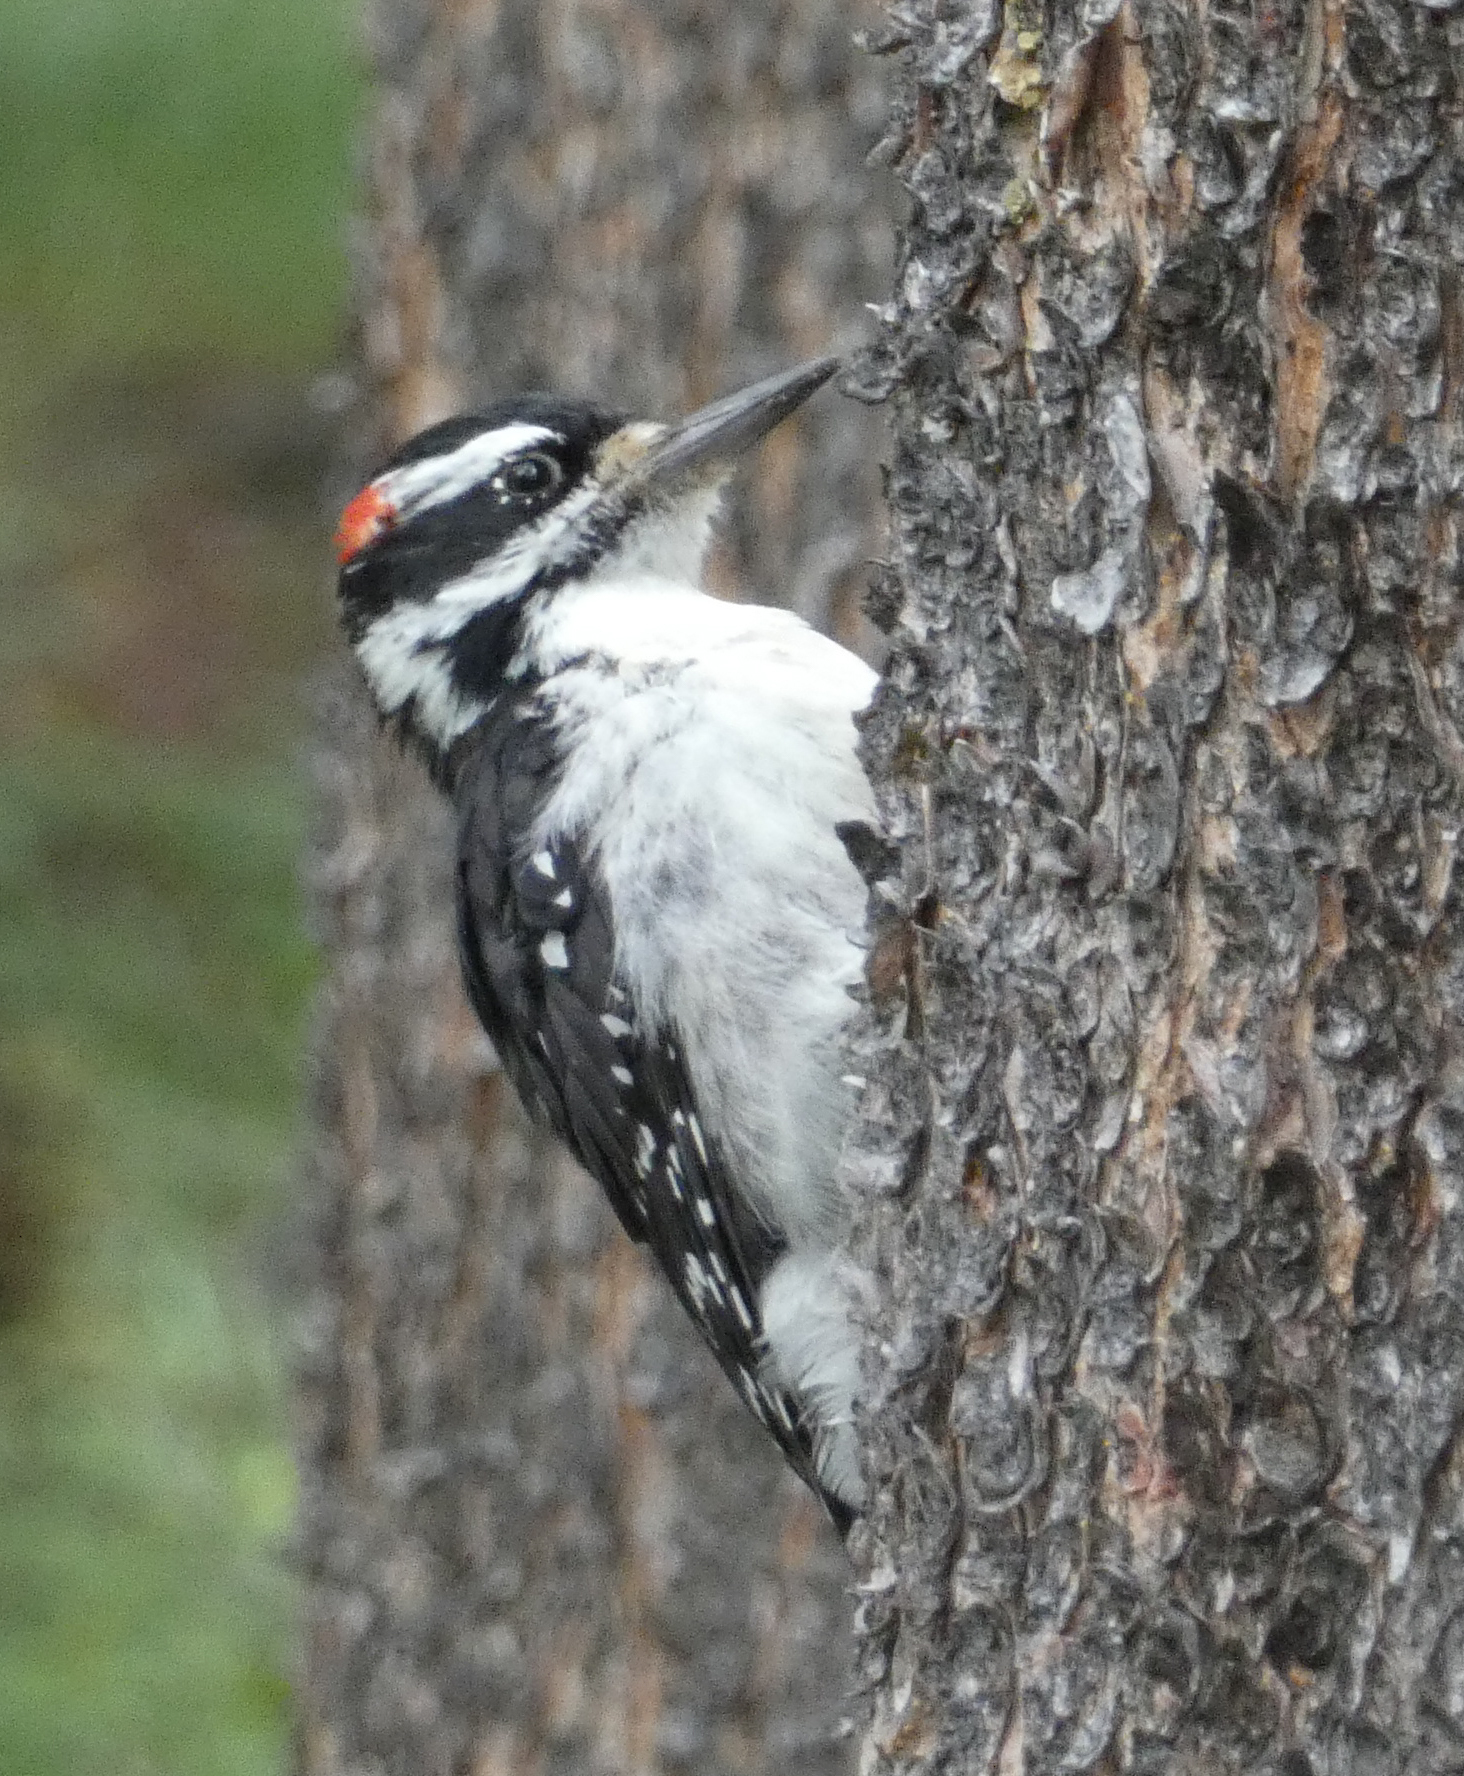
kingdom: Animalia
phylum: Chordata
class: Aves
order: Piciformes
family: Picidae
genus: Leuconotopicus
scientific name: Leuconotopicus villosus
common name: Hairy woodpecker
